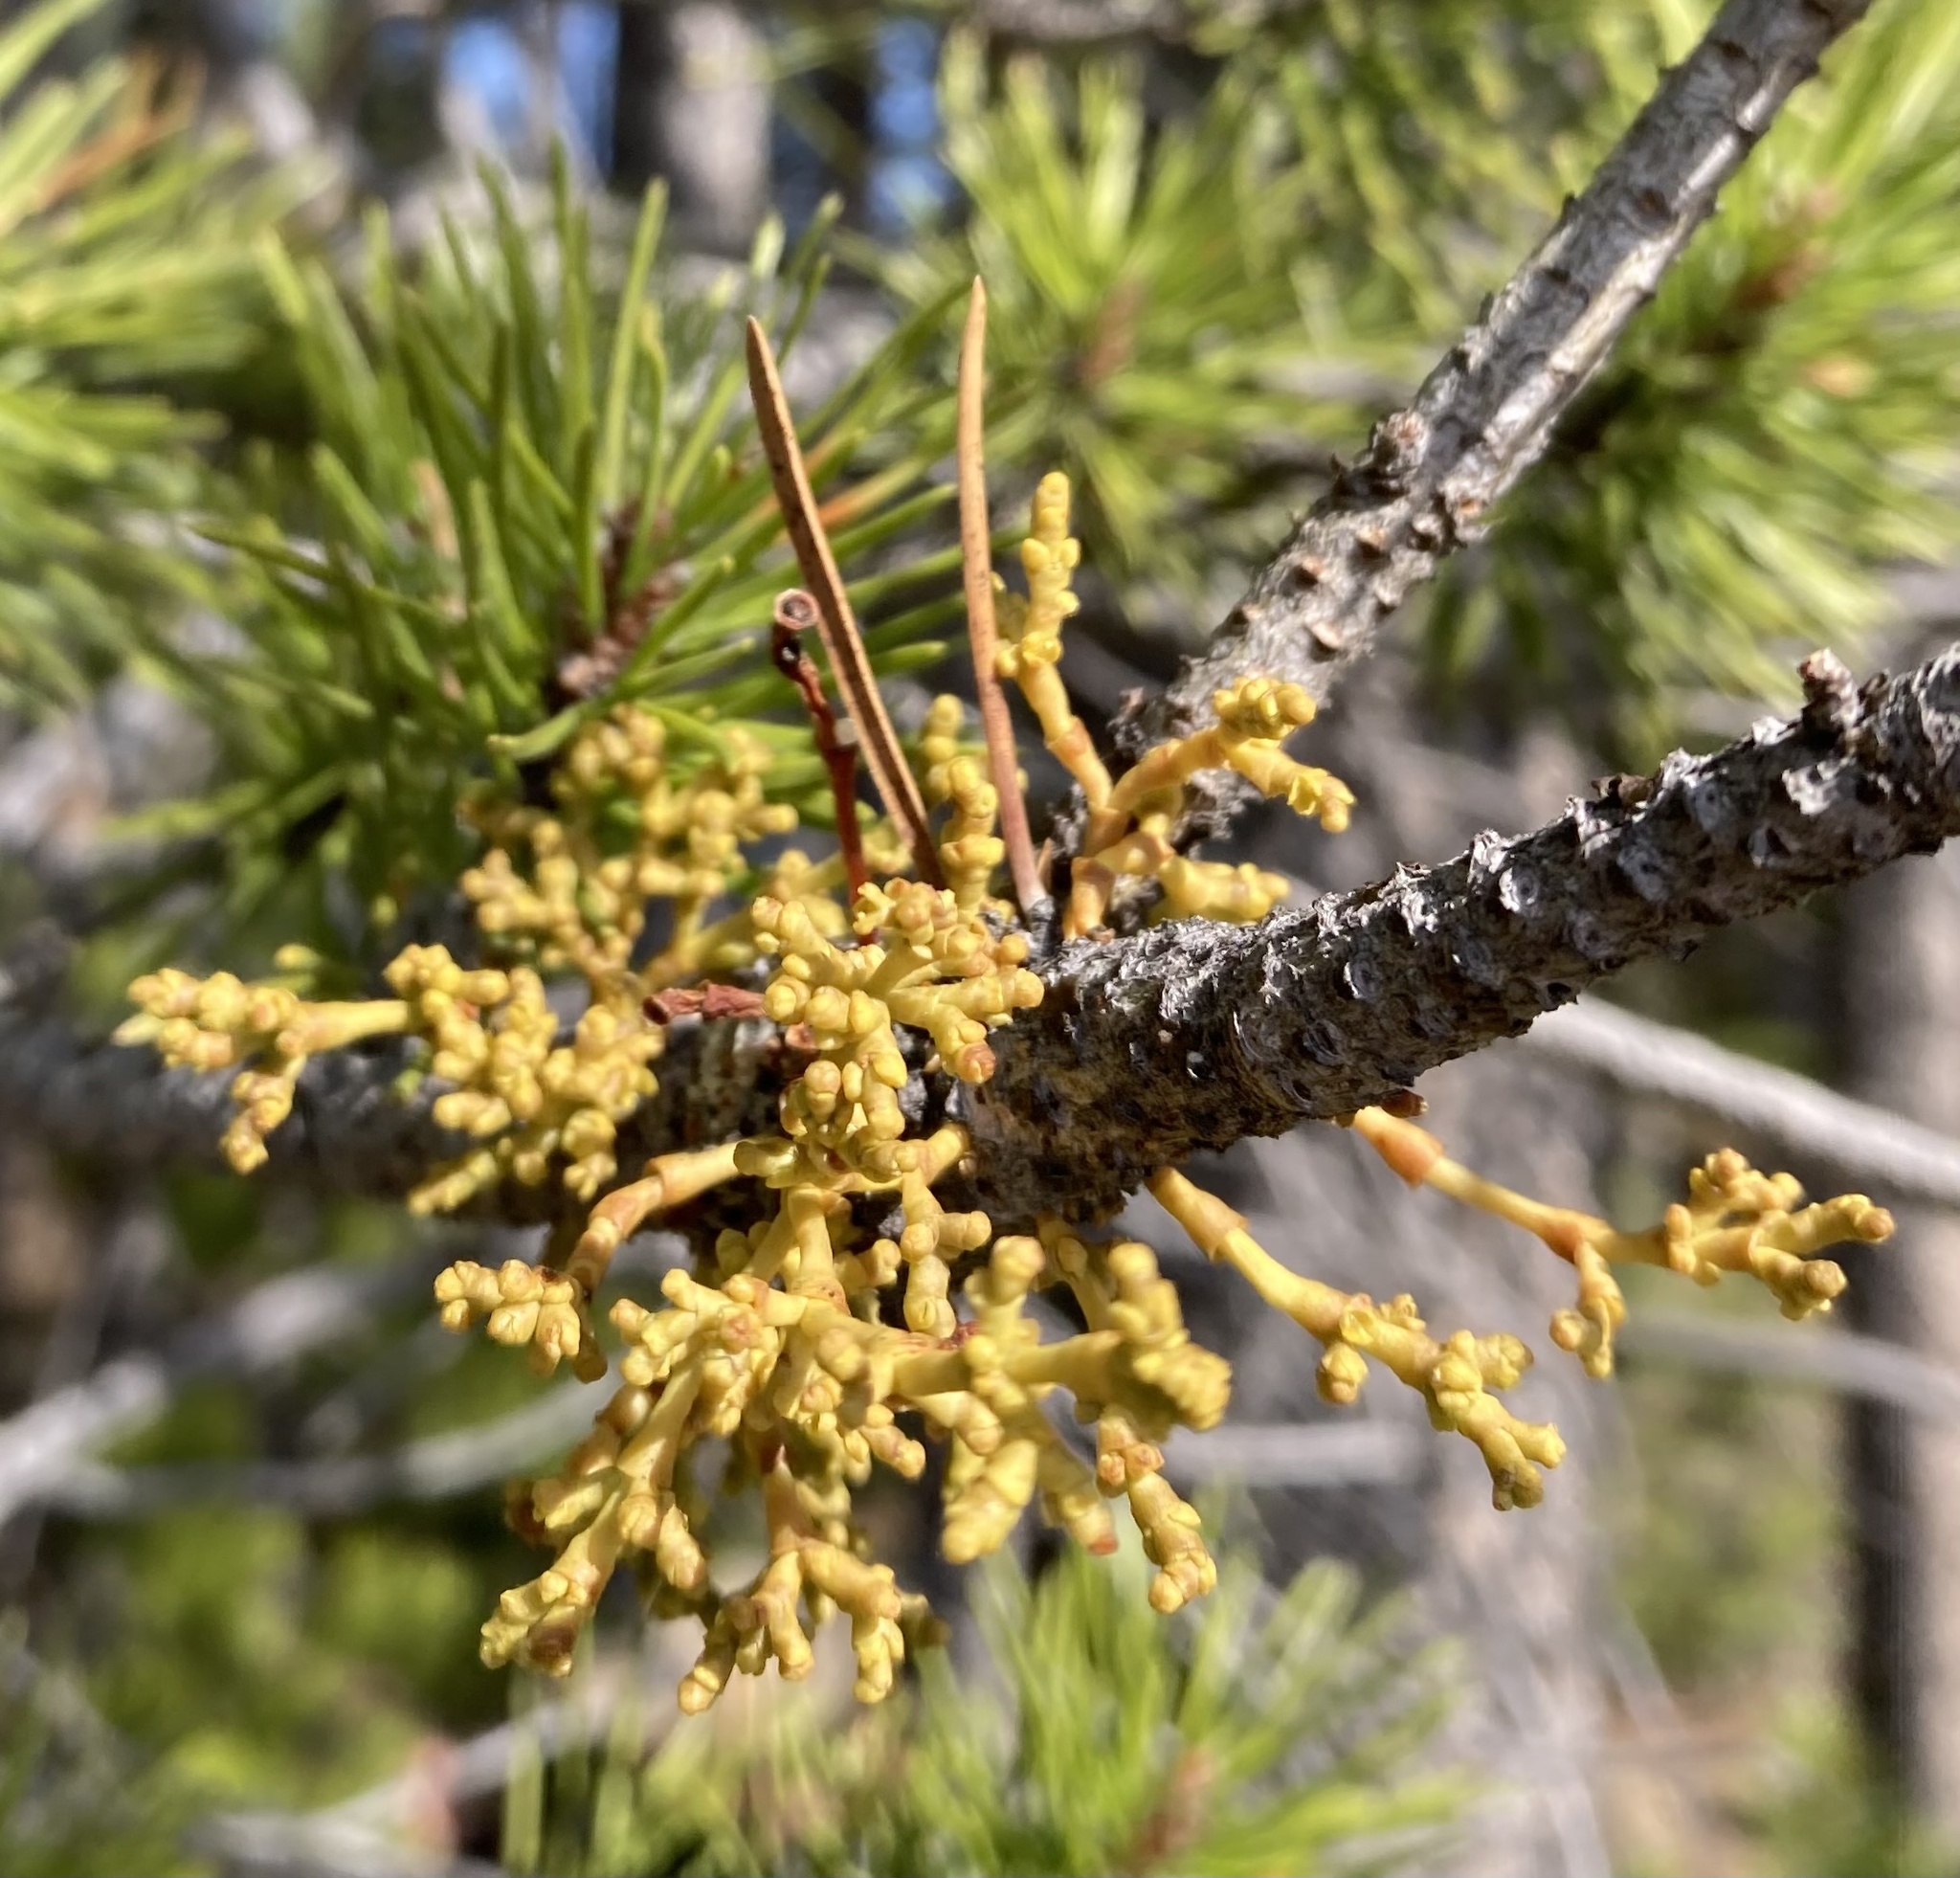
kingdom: Plantae
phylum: Tracheophyta
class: Magnoliopsida
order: Santalales
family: Viscaceae
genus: Arceuthobium
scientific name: Arceuthobium americanum
